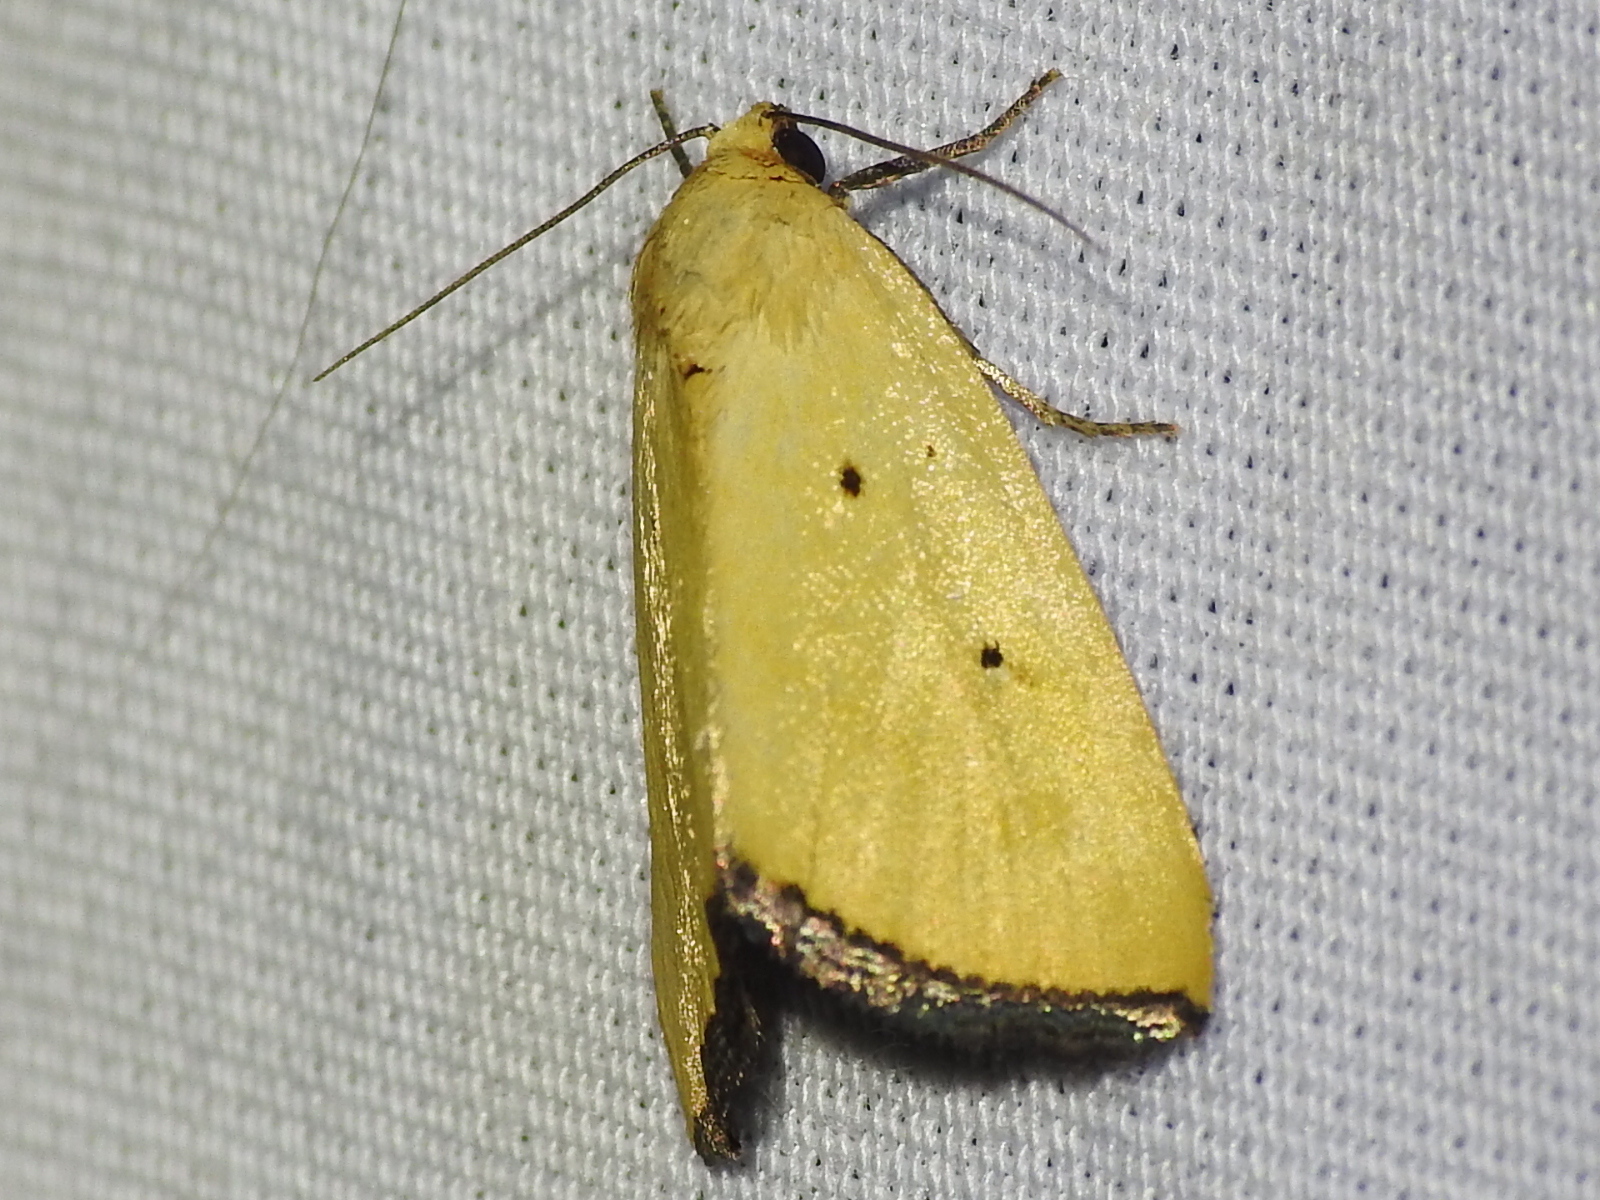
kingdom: Animalia
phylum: Arthropoda
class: Insecta
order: Lepidoptera
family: Noctuidae
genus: Marimatha
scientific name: Marimatha nigrofimbria
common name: Black-bordered lemon moth
